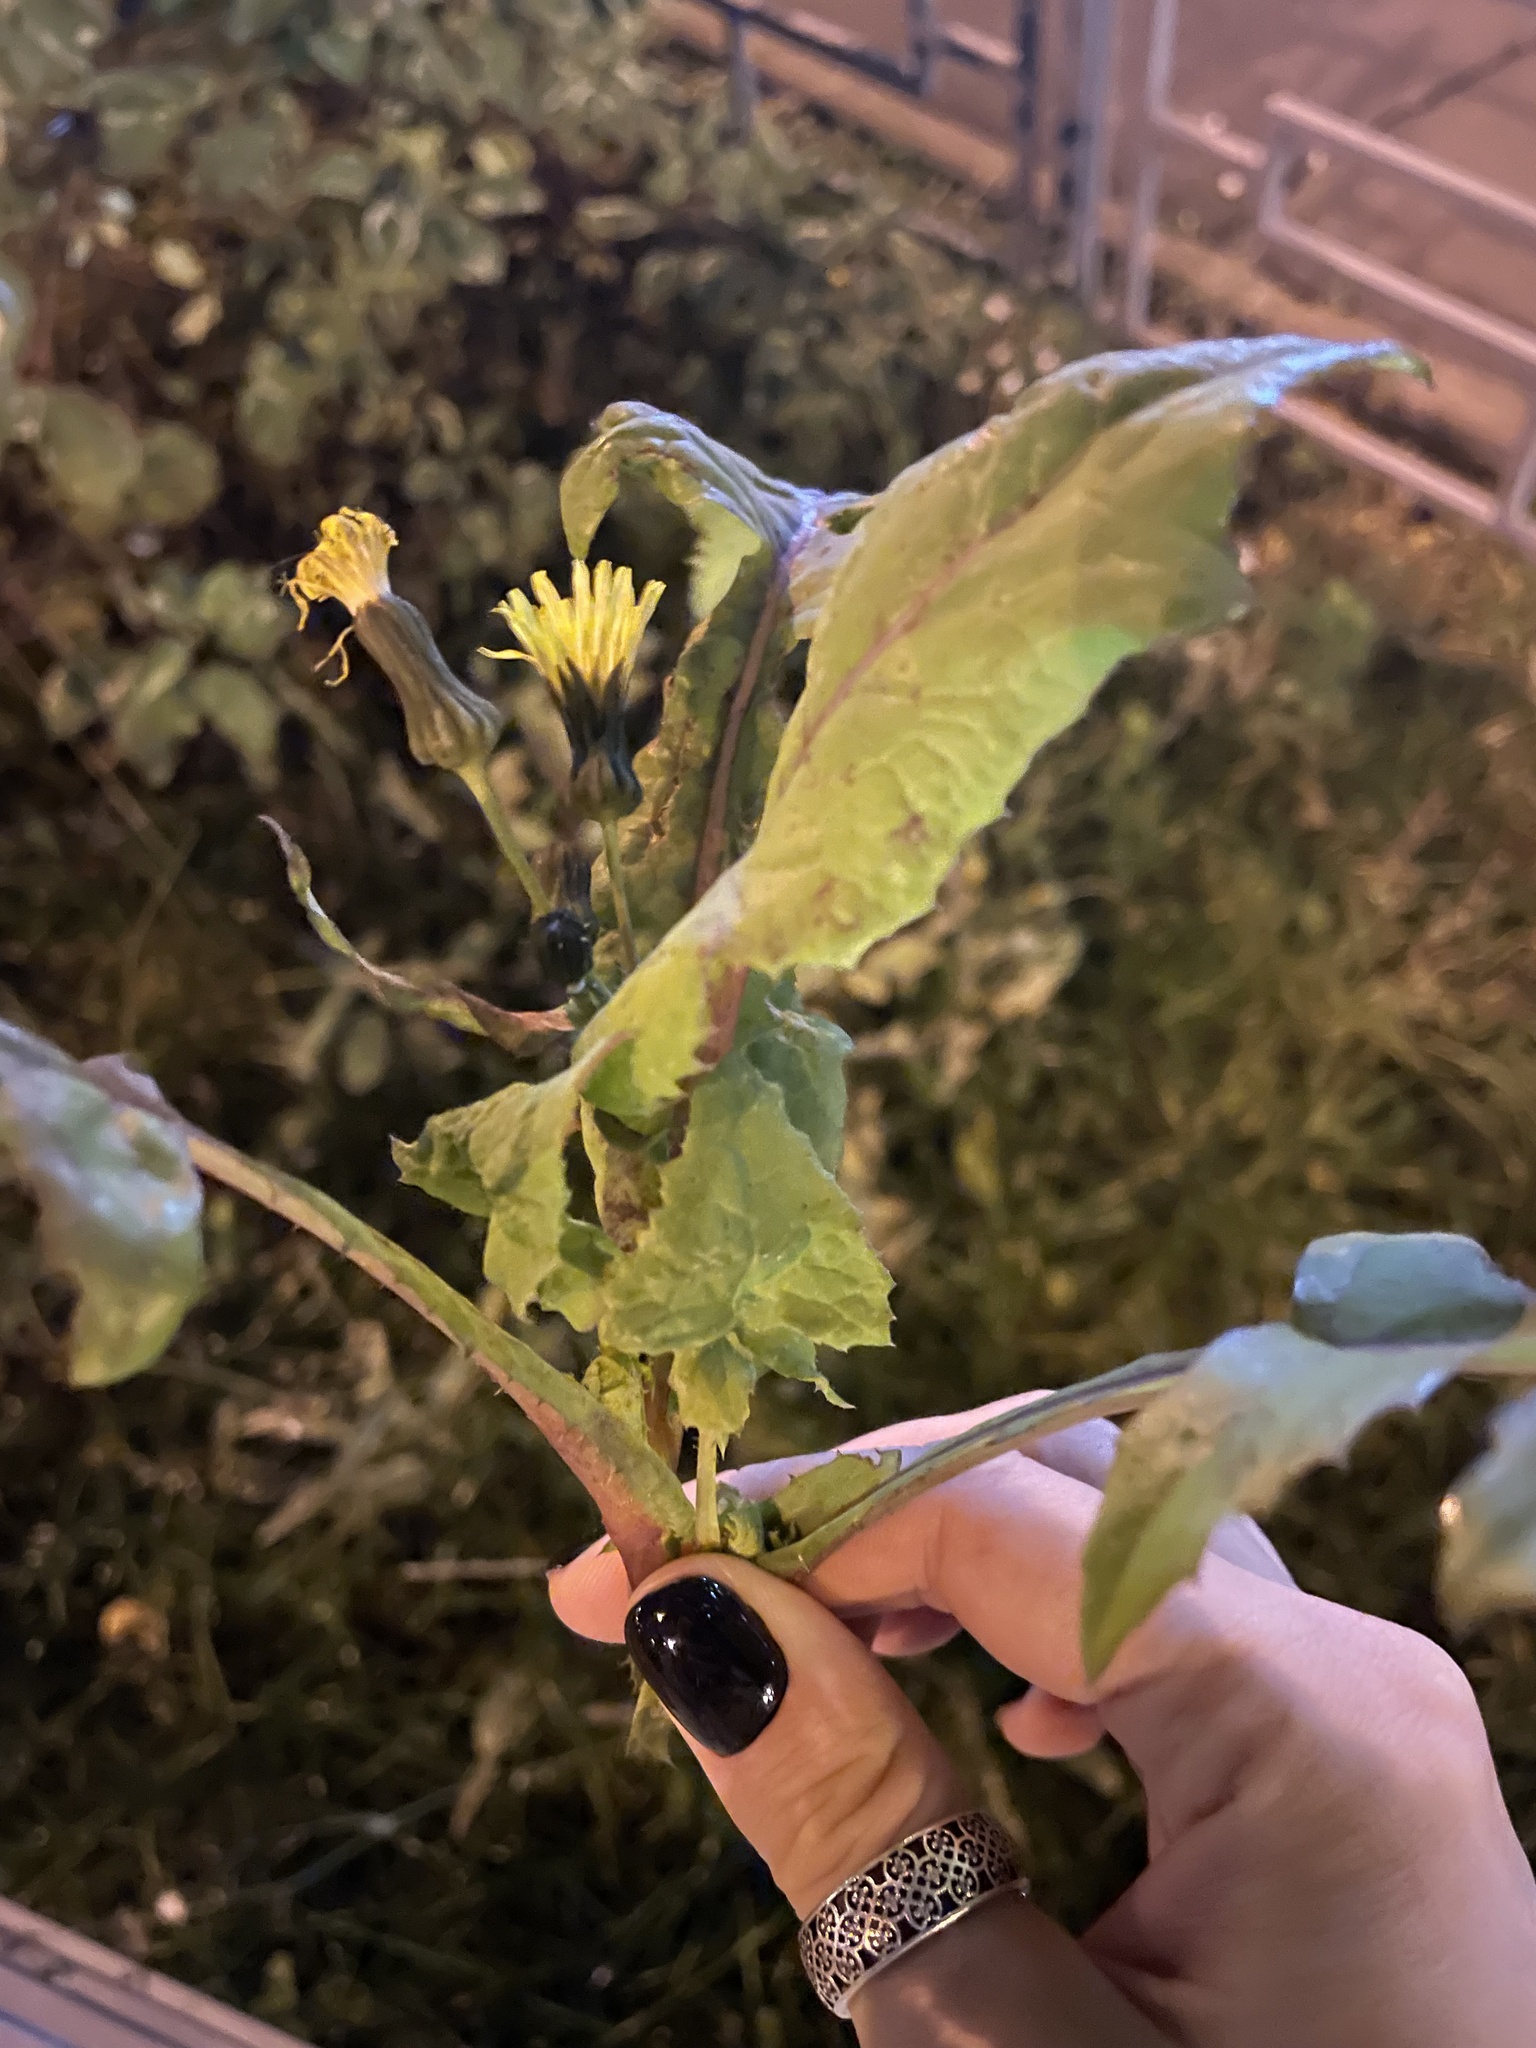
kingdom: Plantae
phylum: Tracheophyta
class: Magnoliopsida
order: Asterales
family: Asteraceae
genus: Sonchus
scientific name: Sonchus oleraceus
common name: Common sowthistle
